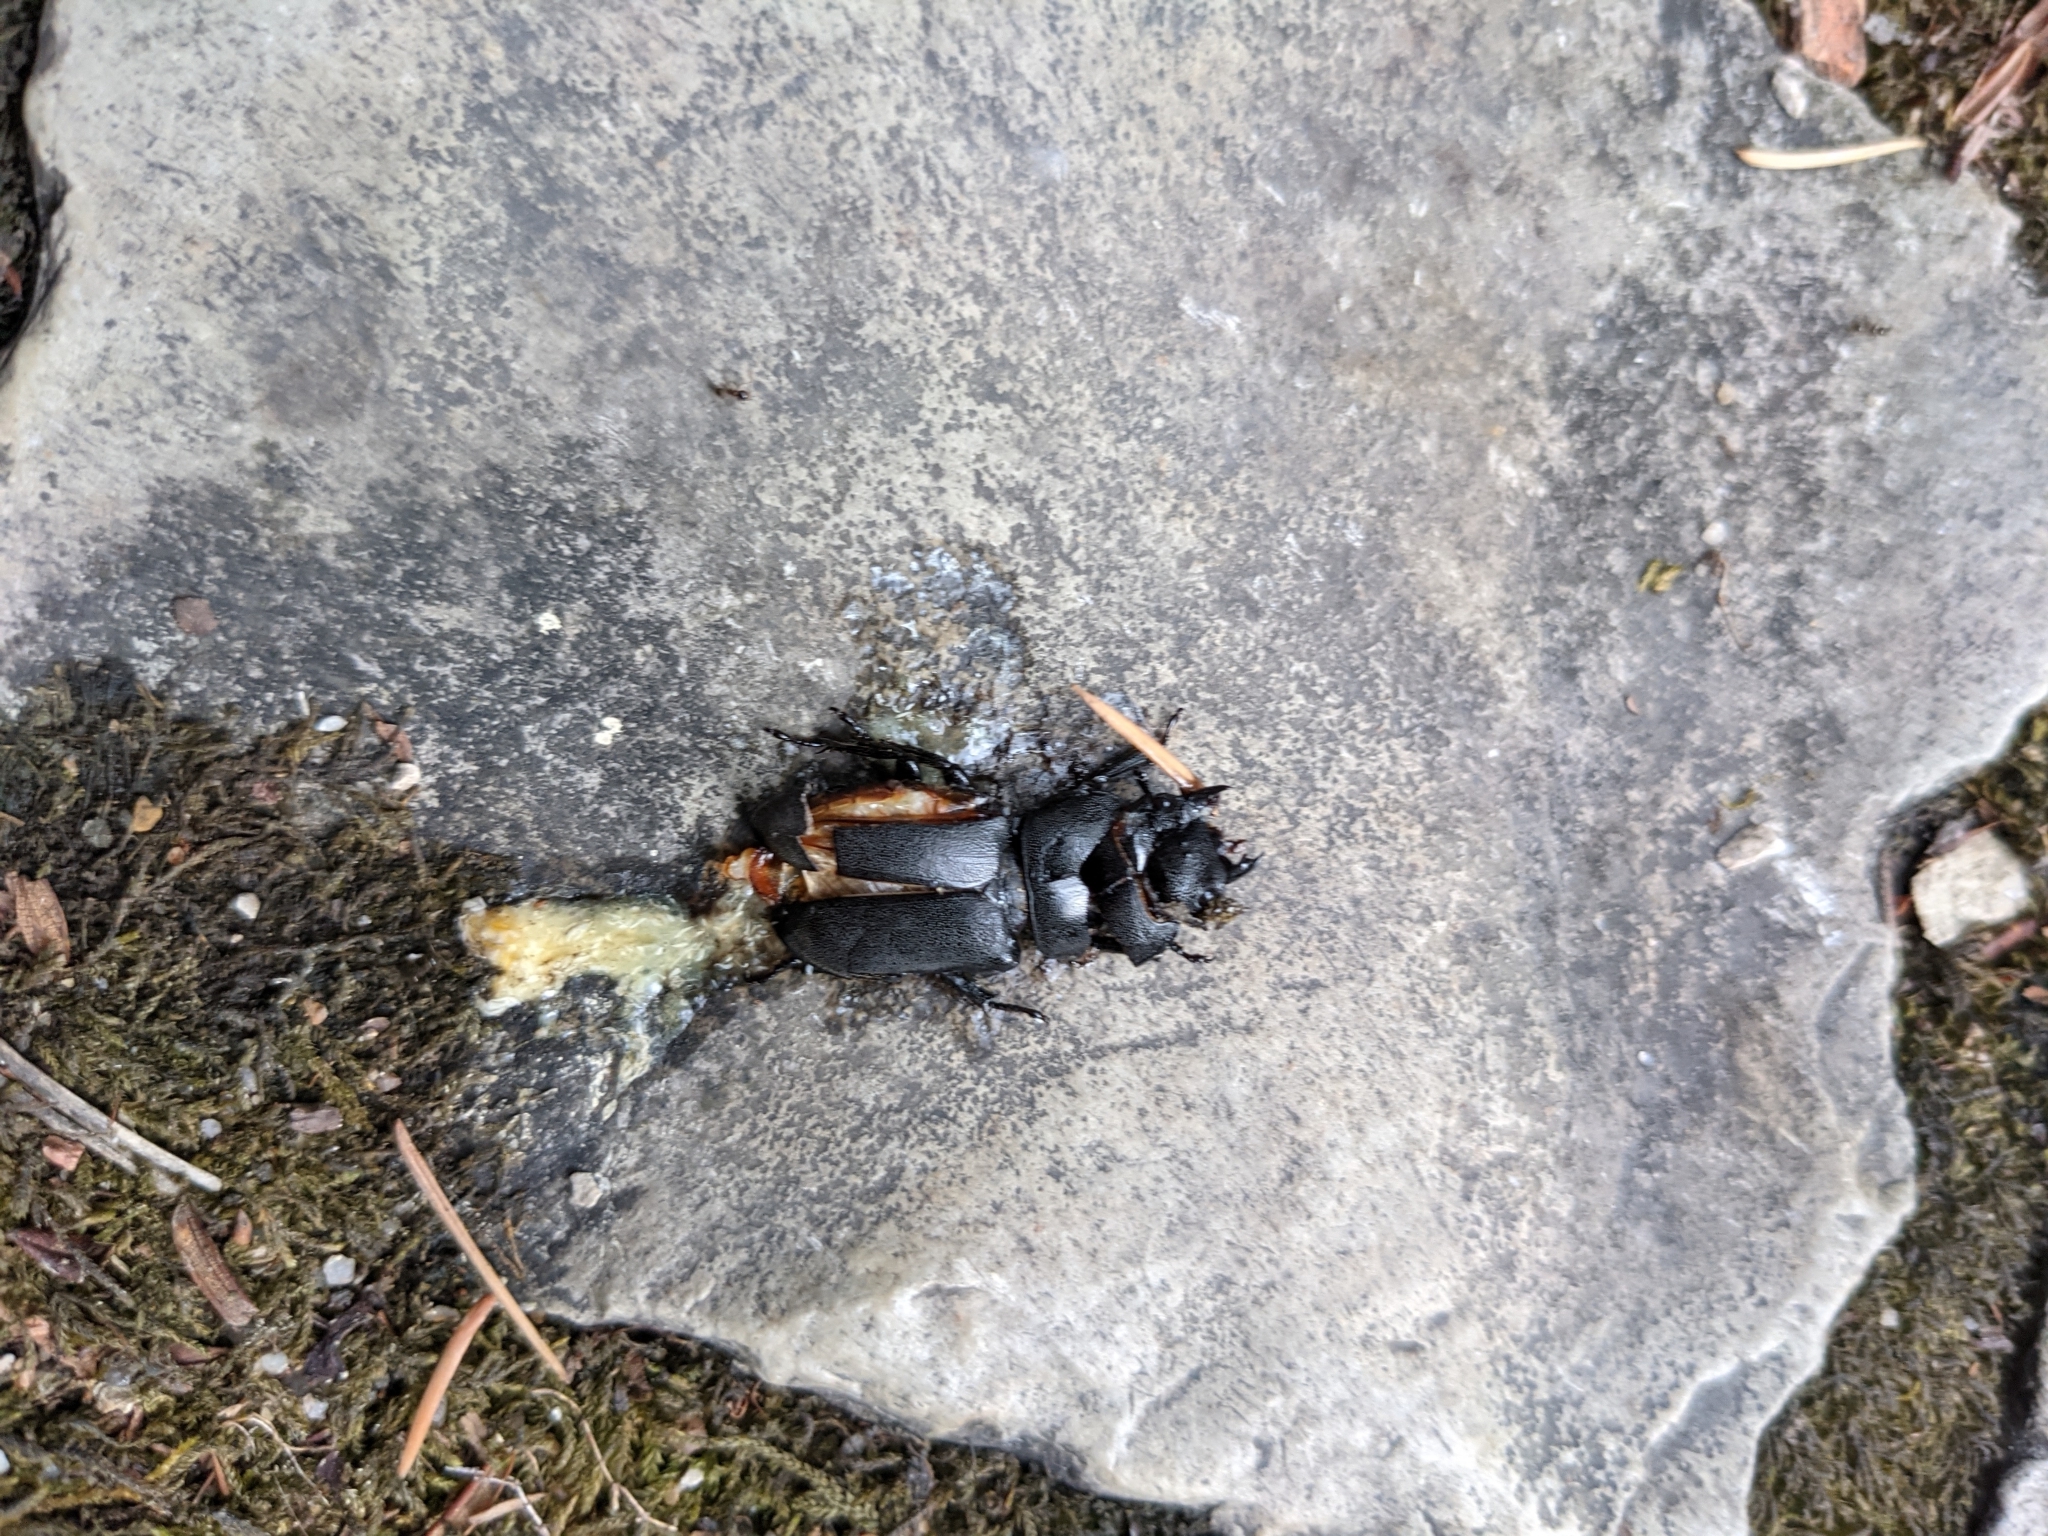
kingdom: Animalia
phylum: Arthropoda
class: Insecta
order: Coleoptera
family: Lucanidae
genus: Dorcus
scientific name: Dorcus parallelipipedus
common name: Lesser stag beetle
